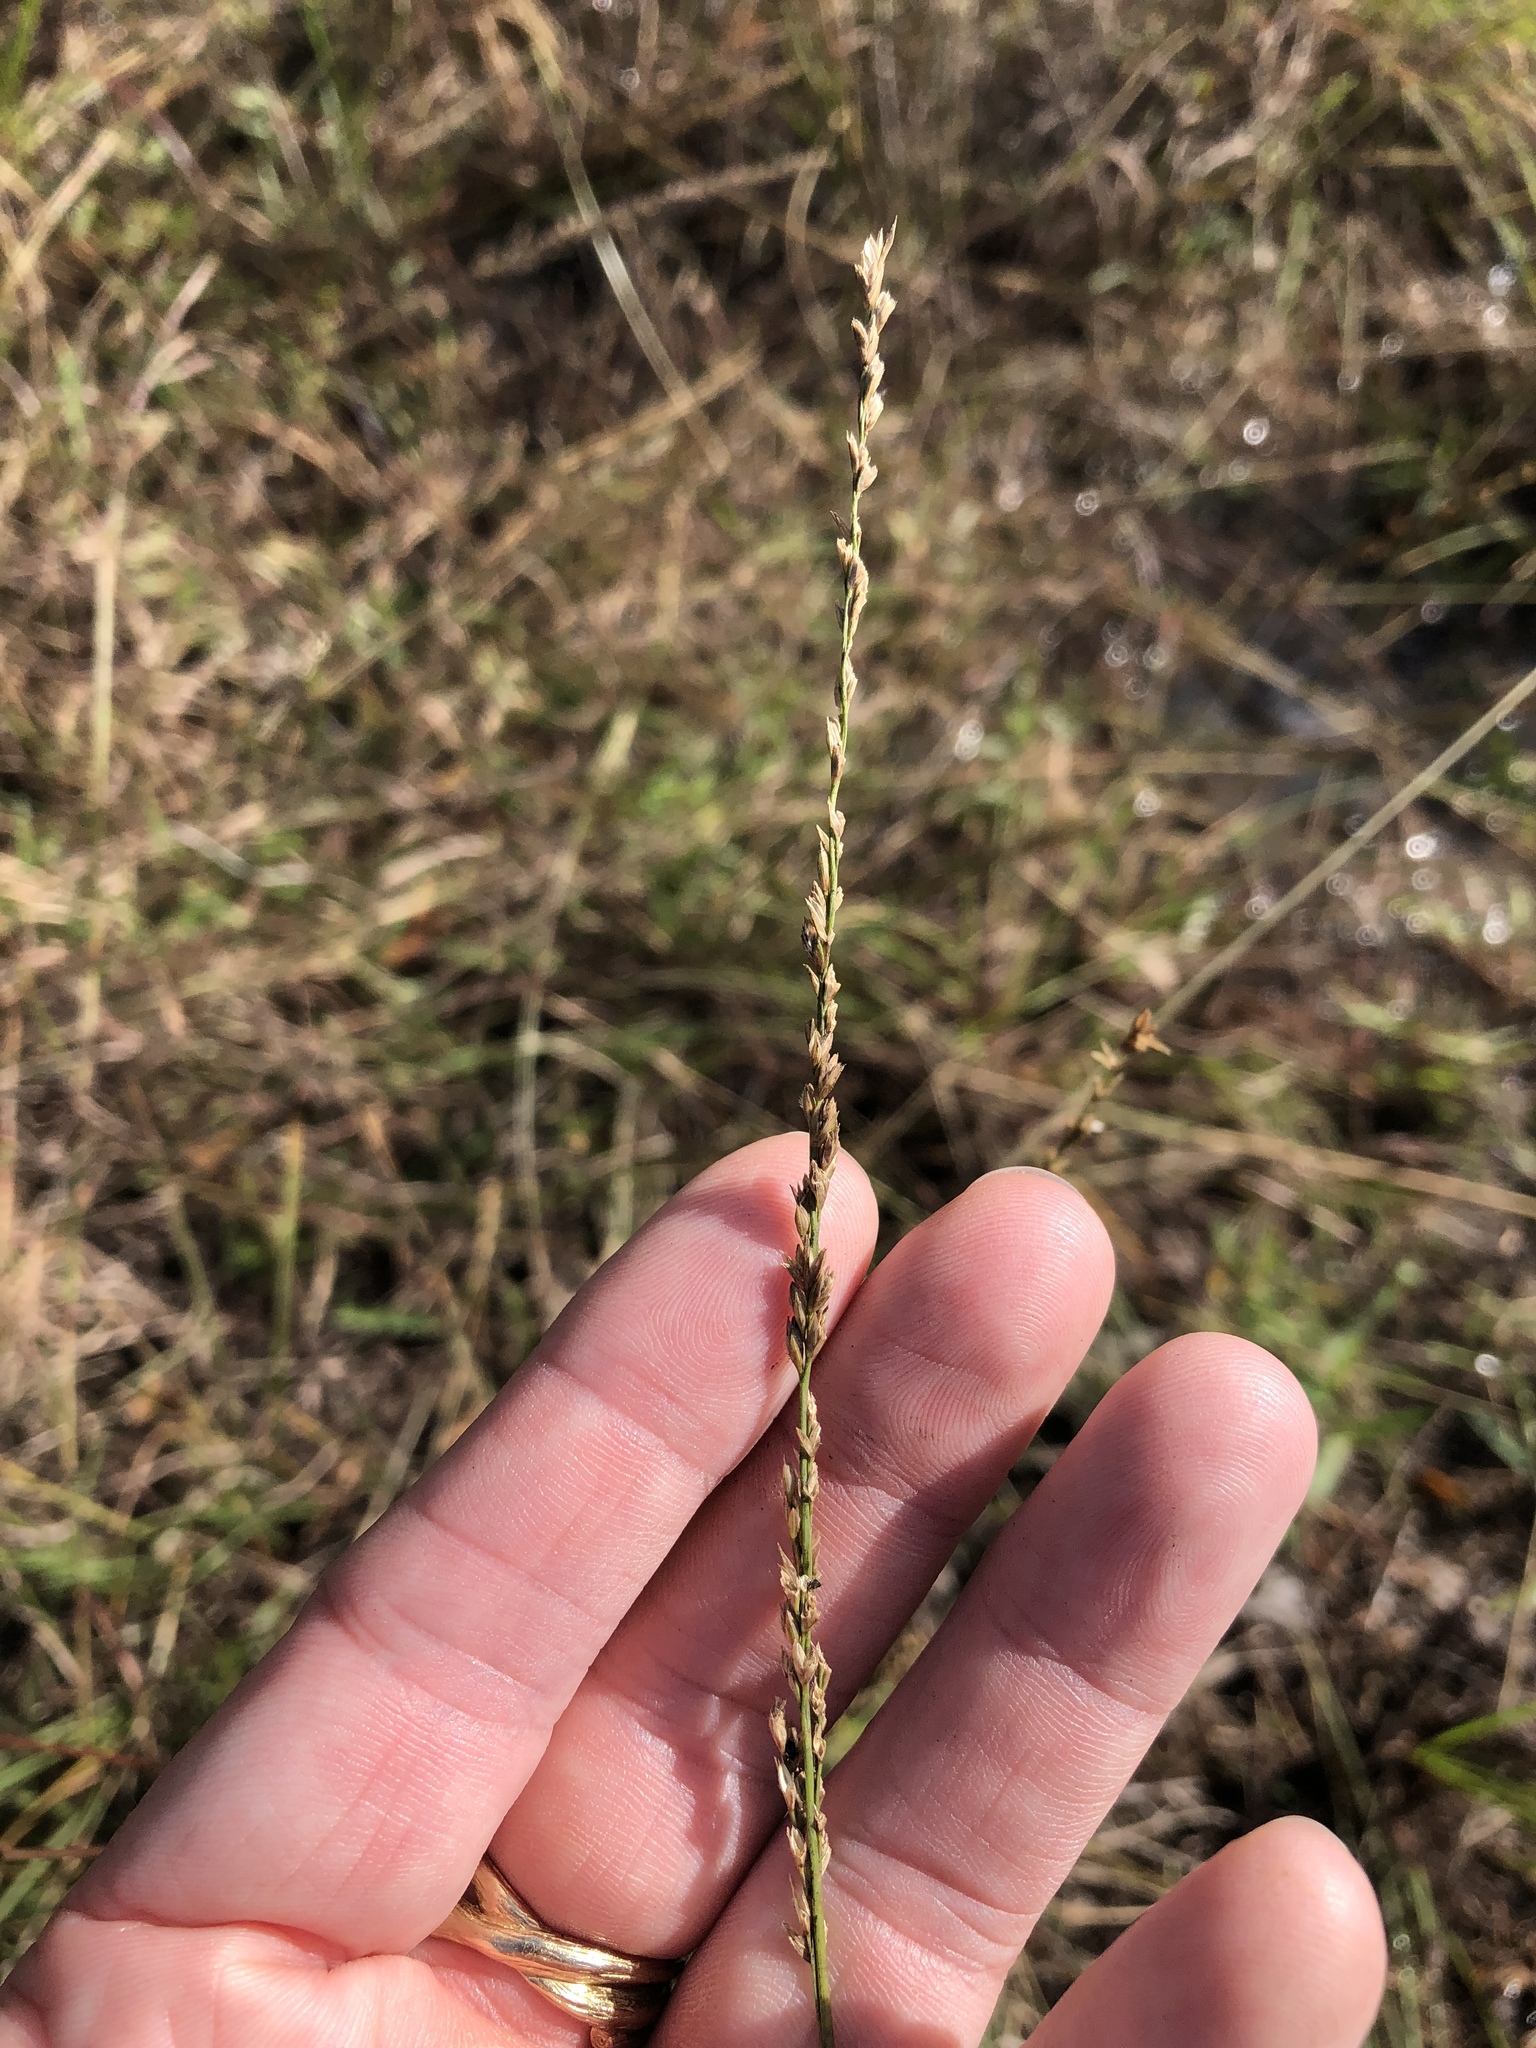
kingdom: Plantae
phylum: Tracheophyta
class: Liliopsida
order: Poales
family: Poaceae
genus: Tridentopsis
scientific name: Tridentopsis mutica
